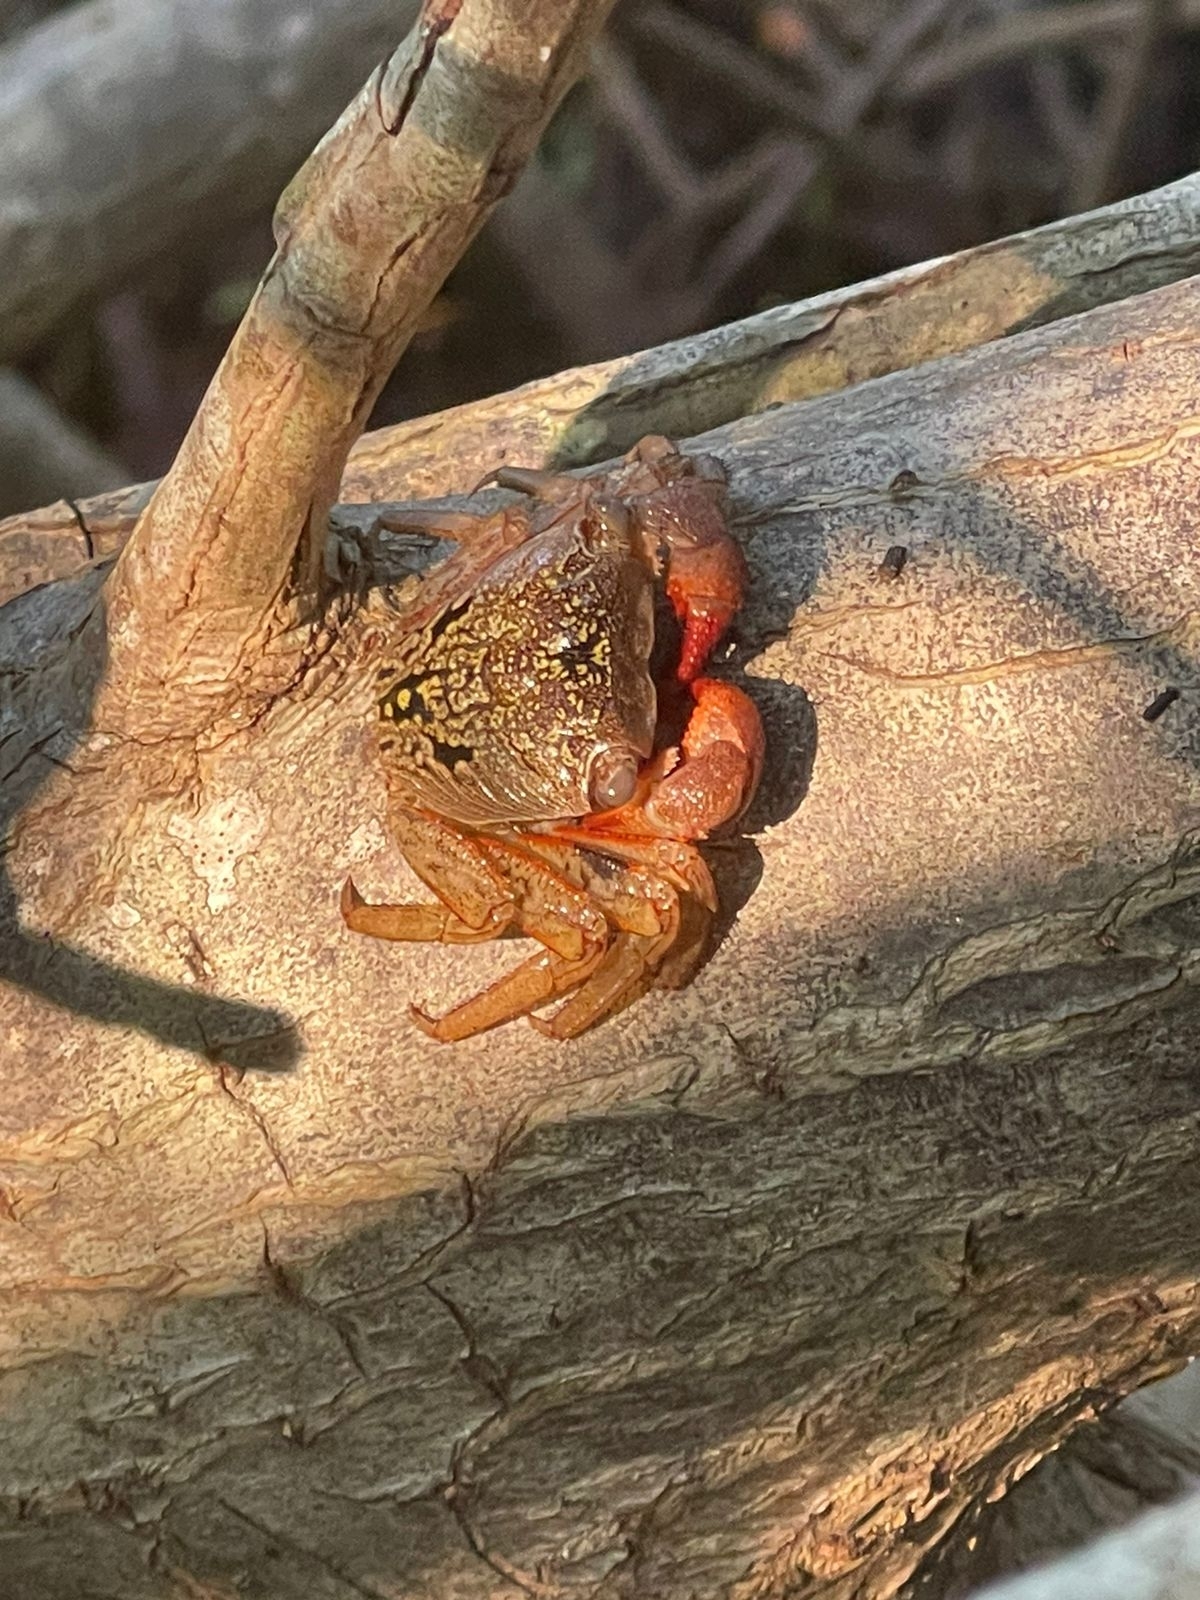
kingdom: Animalia
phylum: Arthropoda
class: Malacostraca
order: Decapoda
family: Sesarmidae
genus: Aratus
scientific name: Aratus pisonii
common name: Mangrove crab
